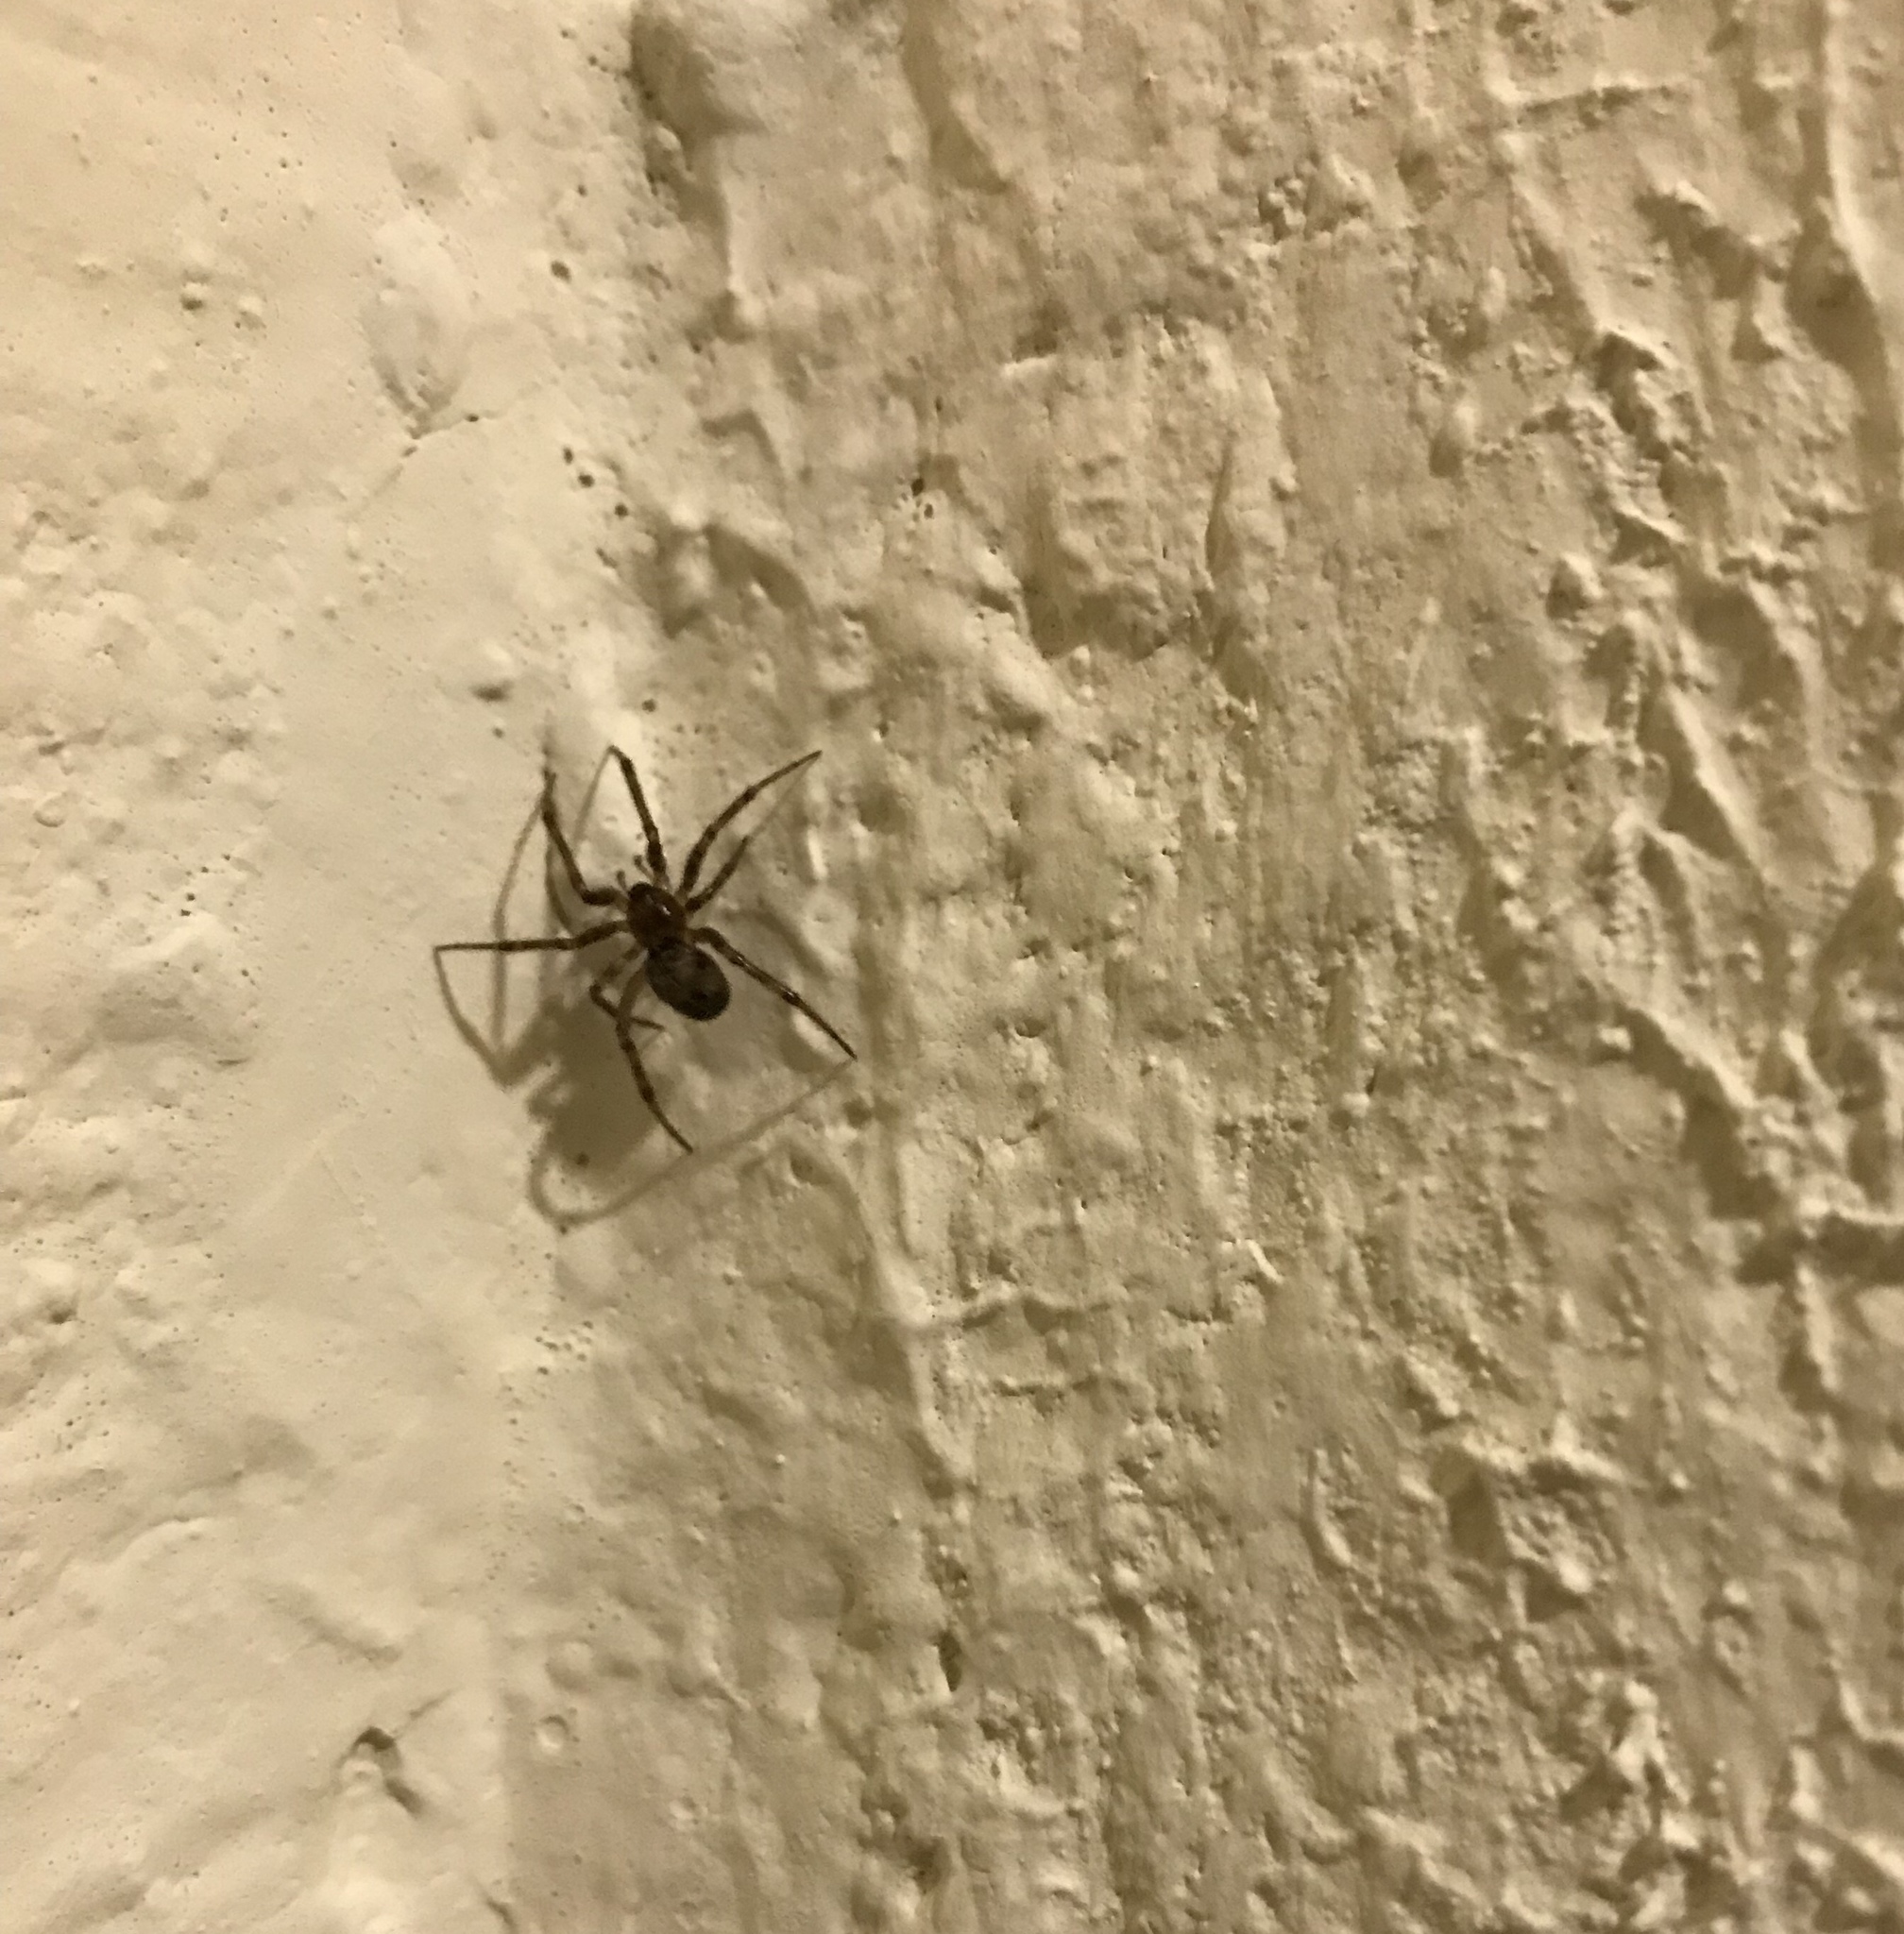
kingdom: Animalia
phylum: Arthropoda
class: Arachnida
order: Araneae
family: Theridiidae
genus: Steatoda
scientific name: Steatoda castanea
